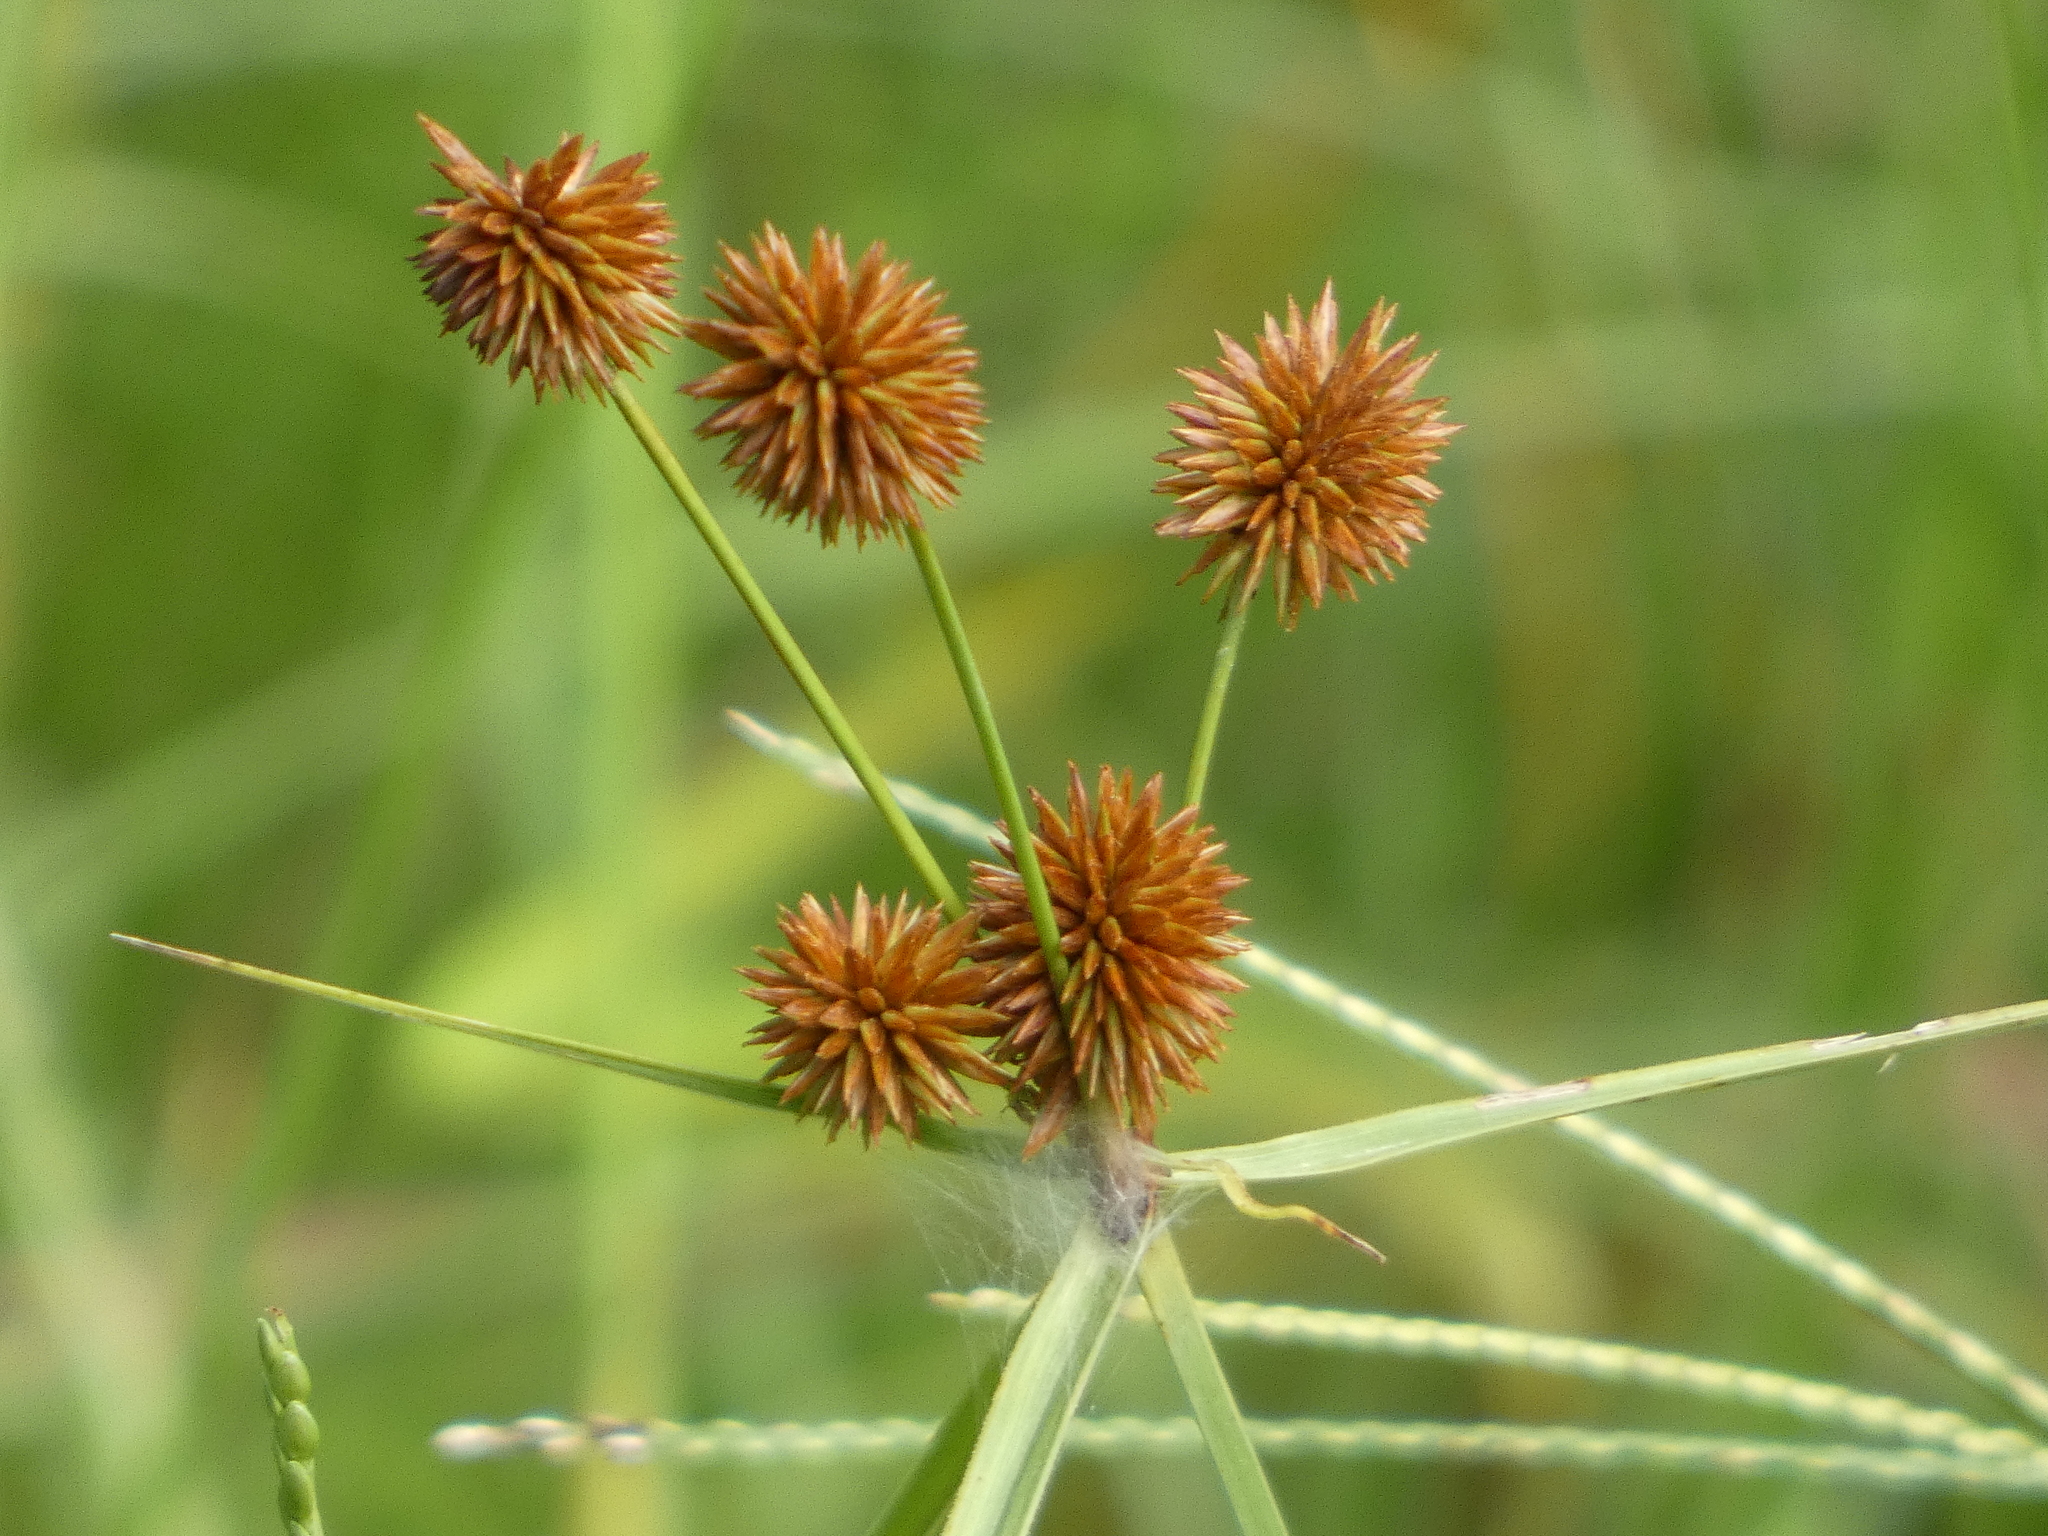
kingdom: Plantae
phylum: Tracheophyta
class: Liliopsida
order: Poales
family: Cyperaceae
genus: Cyperus
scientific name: Cyperus echinatus
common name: Teasel sedge
